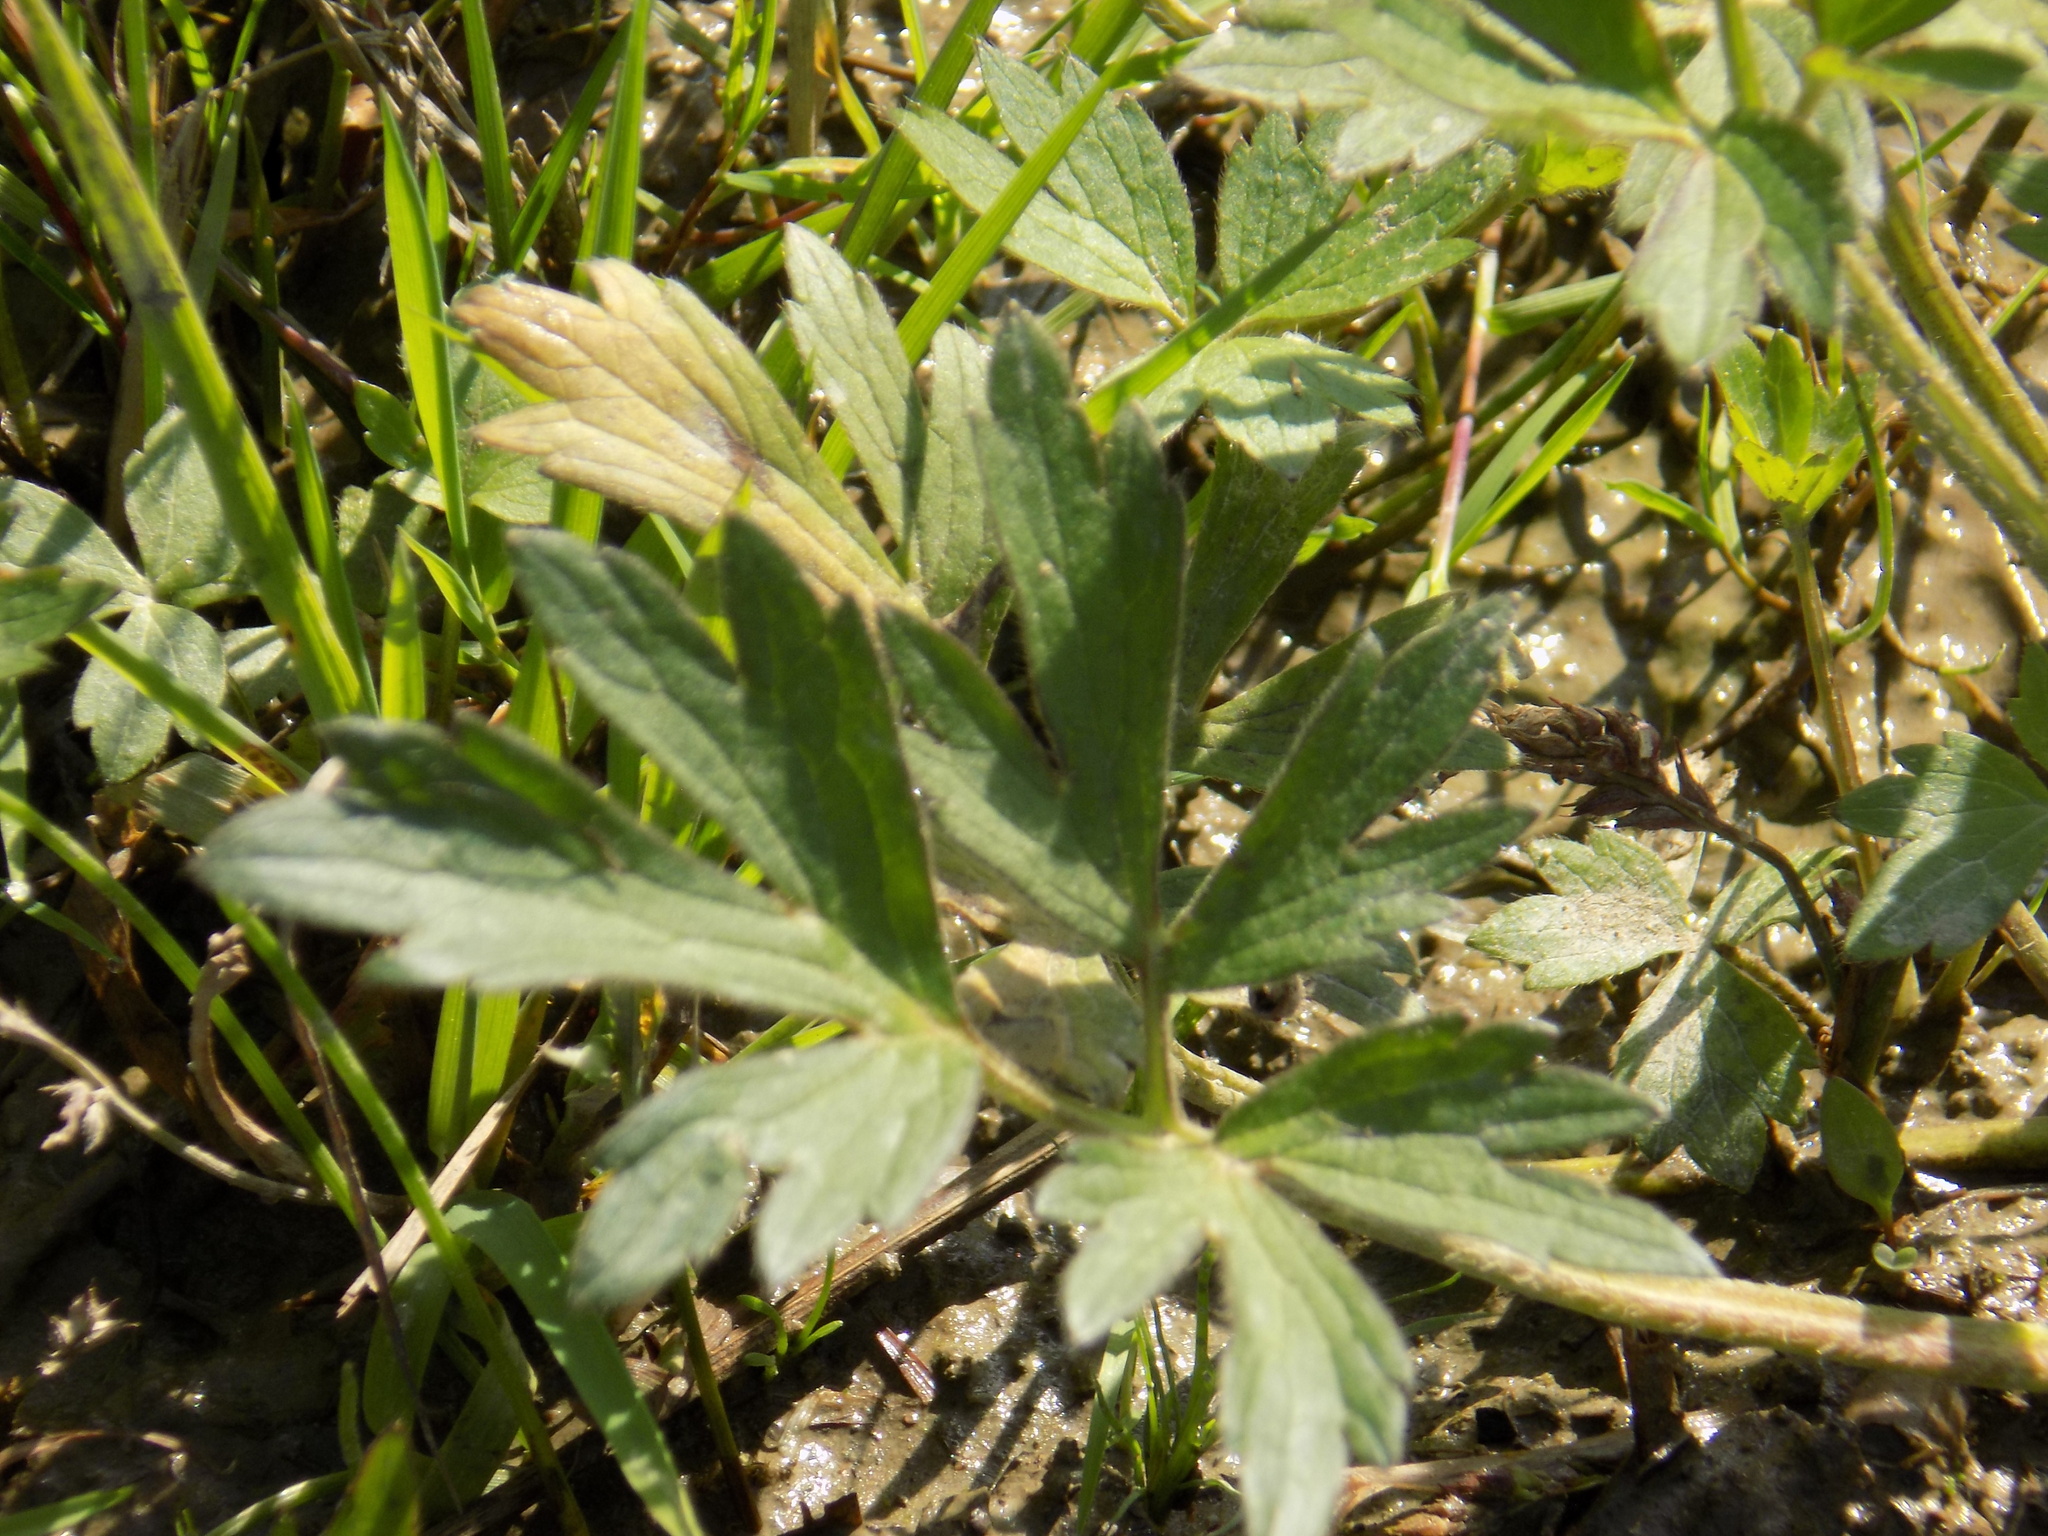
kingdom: Plantae
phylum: Tracheophyta
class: Magnoliopsida
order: Ranunculales
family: Ranunculaceae
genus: Ranunculus
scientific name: Ranunculus repens
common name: Creeping buttercup
